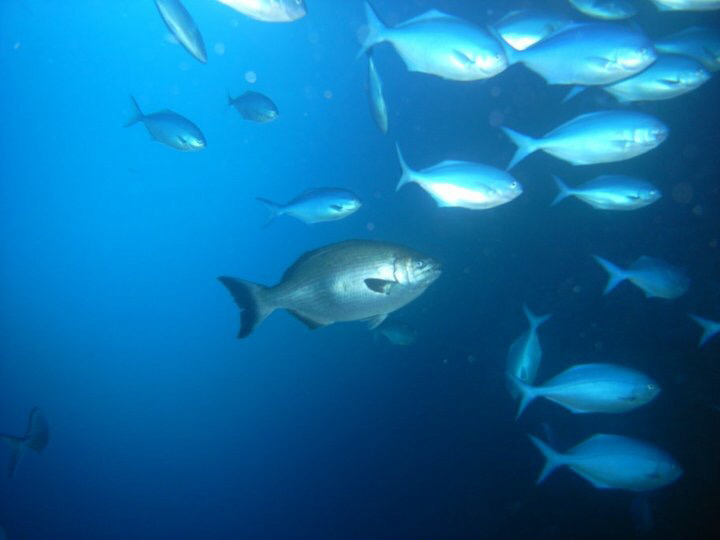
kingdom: Animalia
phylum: Chordata
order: Perciformes
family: Kyphosidae
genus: Kyphosus
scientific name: Kyphosus sydneyanus
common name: Silver drummer
